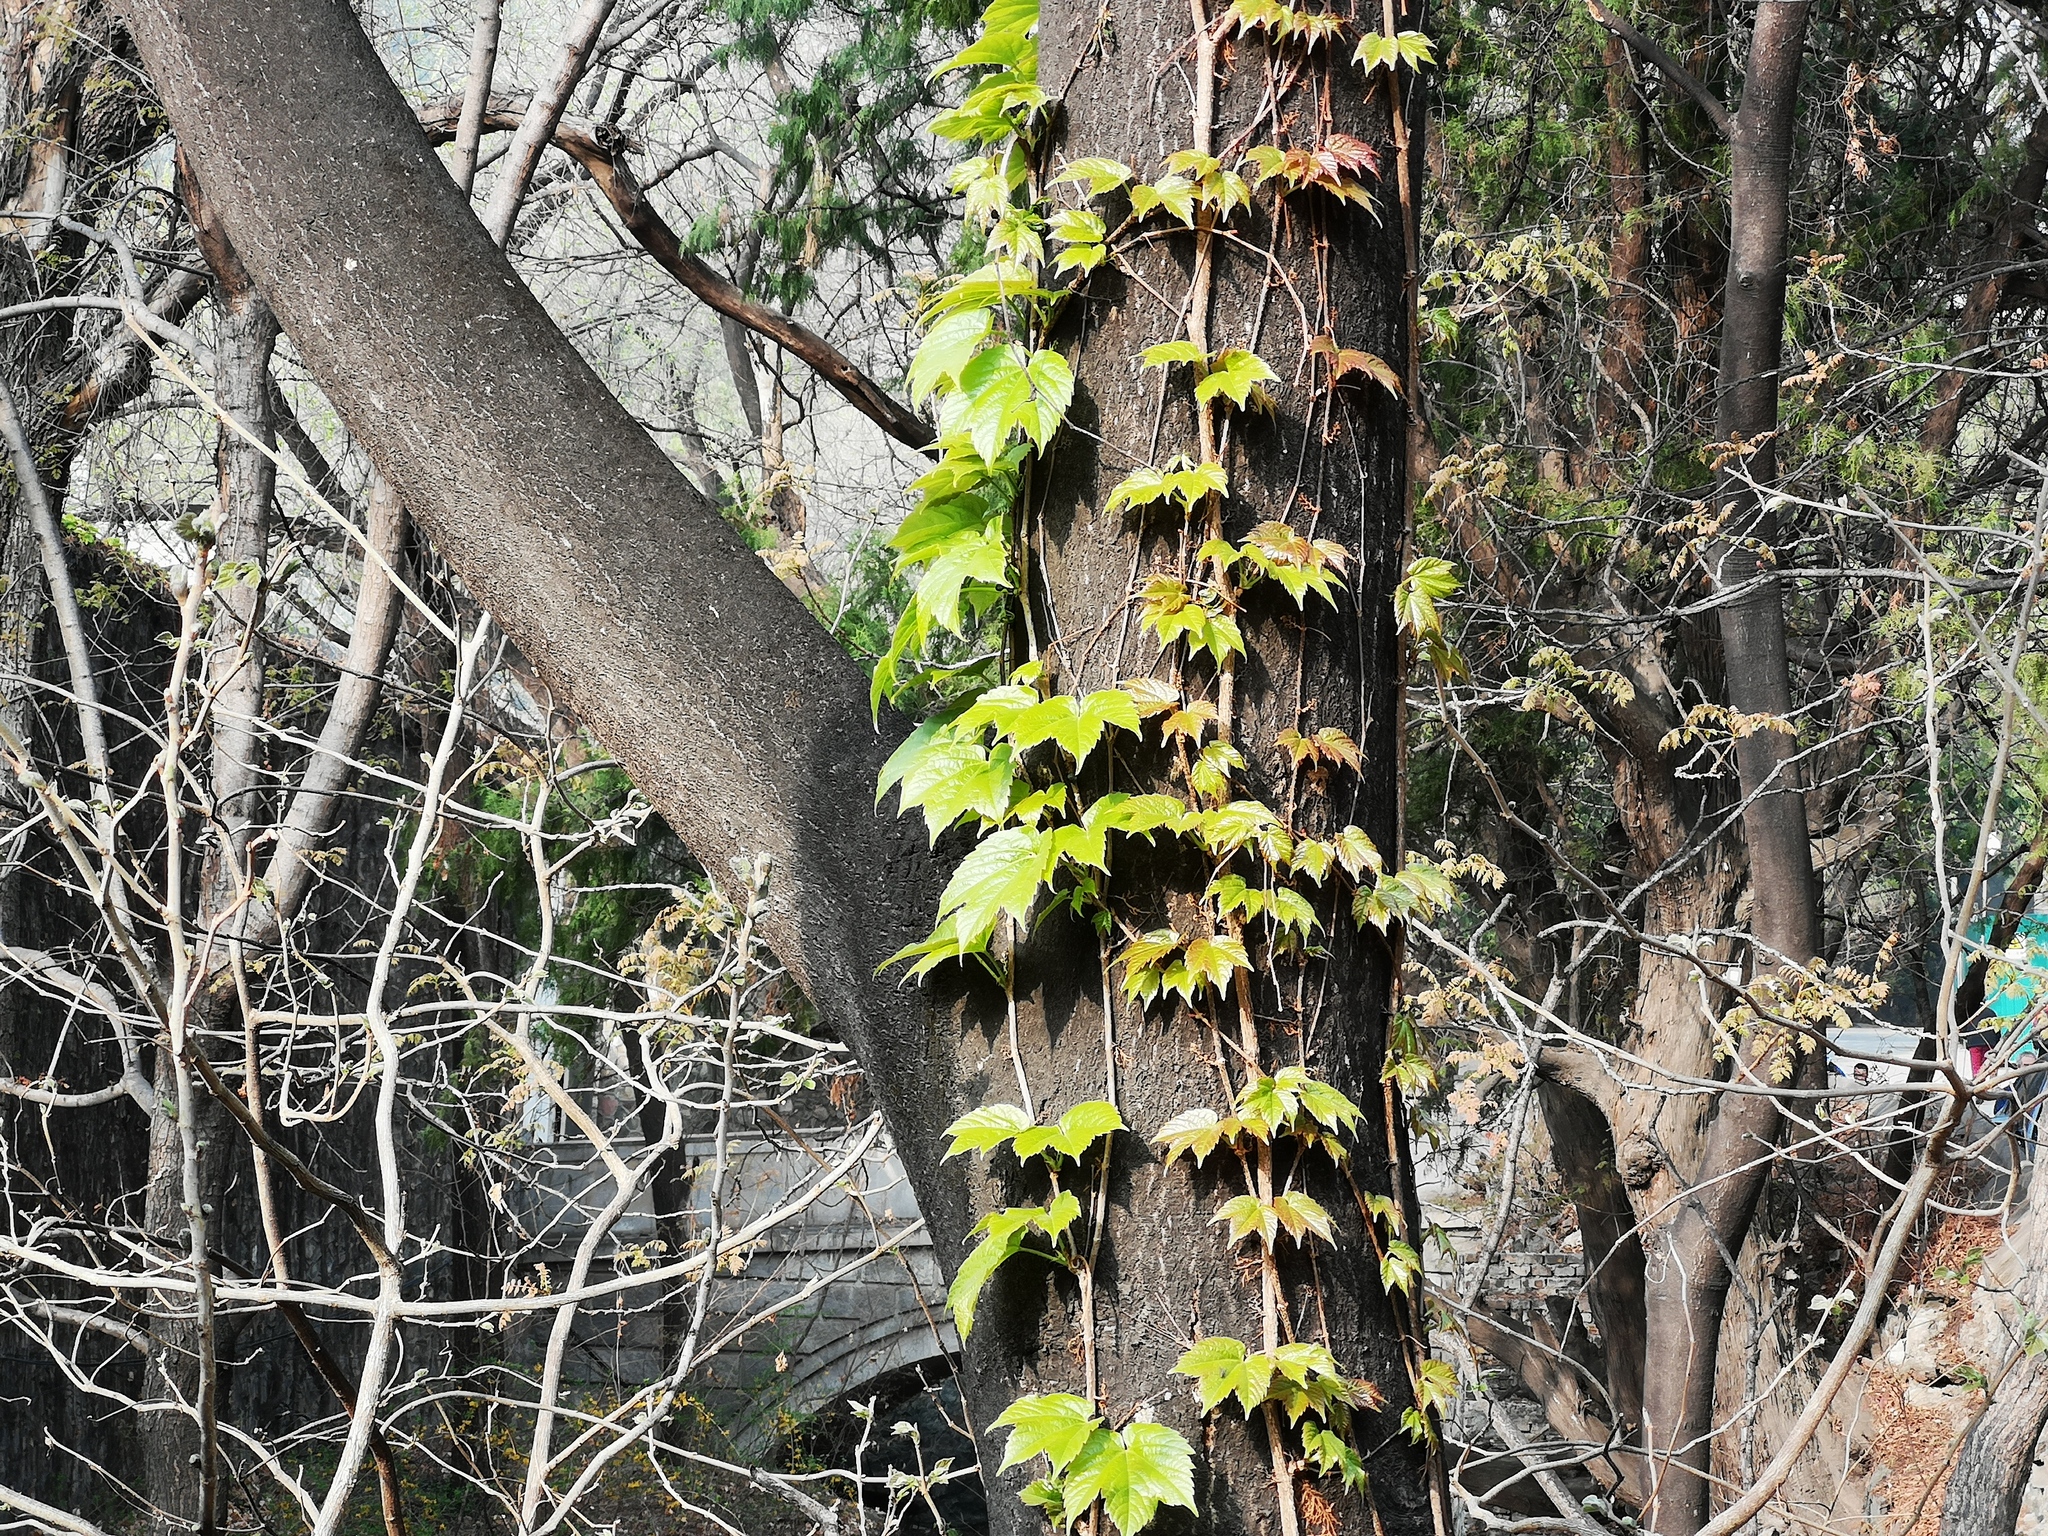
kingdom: Plantae
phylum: Tracheophyta
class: Magnoliopsida
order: Vitales
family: Vitaceae
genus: Parthenocissus
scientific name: Parthenocissus tricuspidata
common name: Boston ivy
